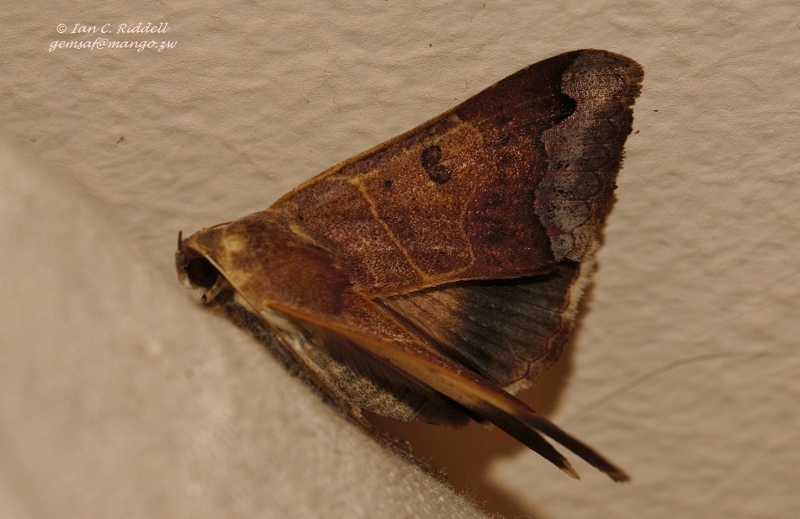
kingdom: Animalia
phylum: Arthropoda
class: Insecta
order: Lepidoptera
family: Erebidae
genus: Ophiusa
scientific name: Ophiusa mejanesi
